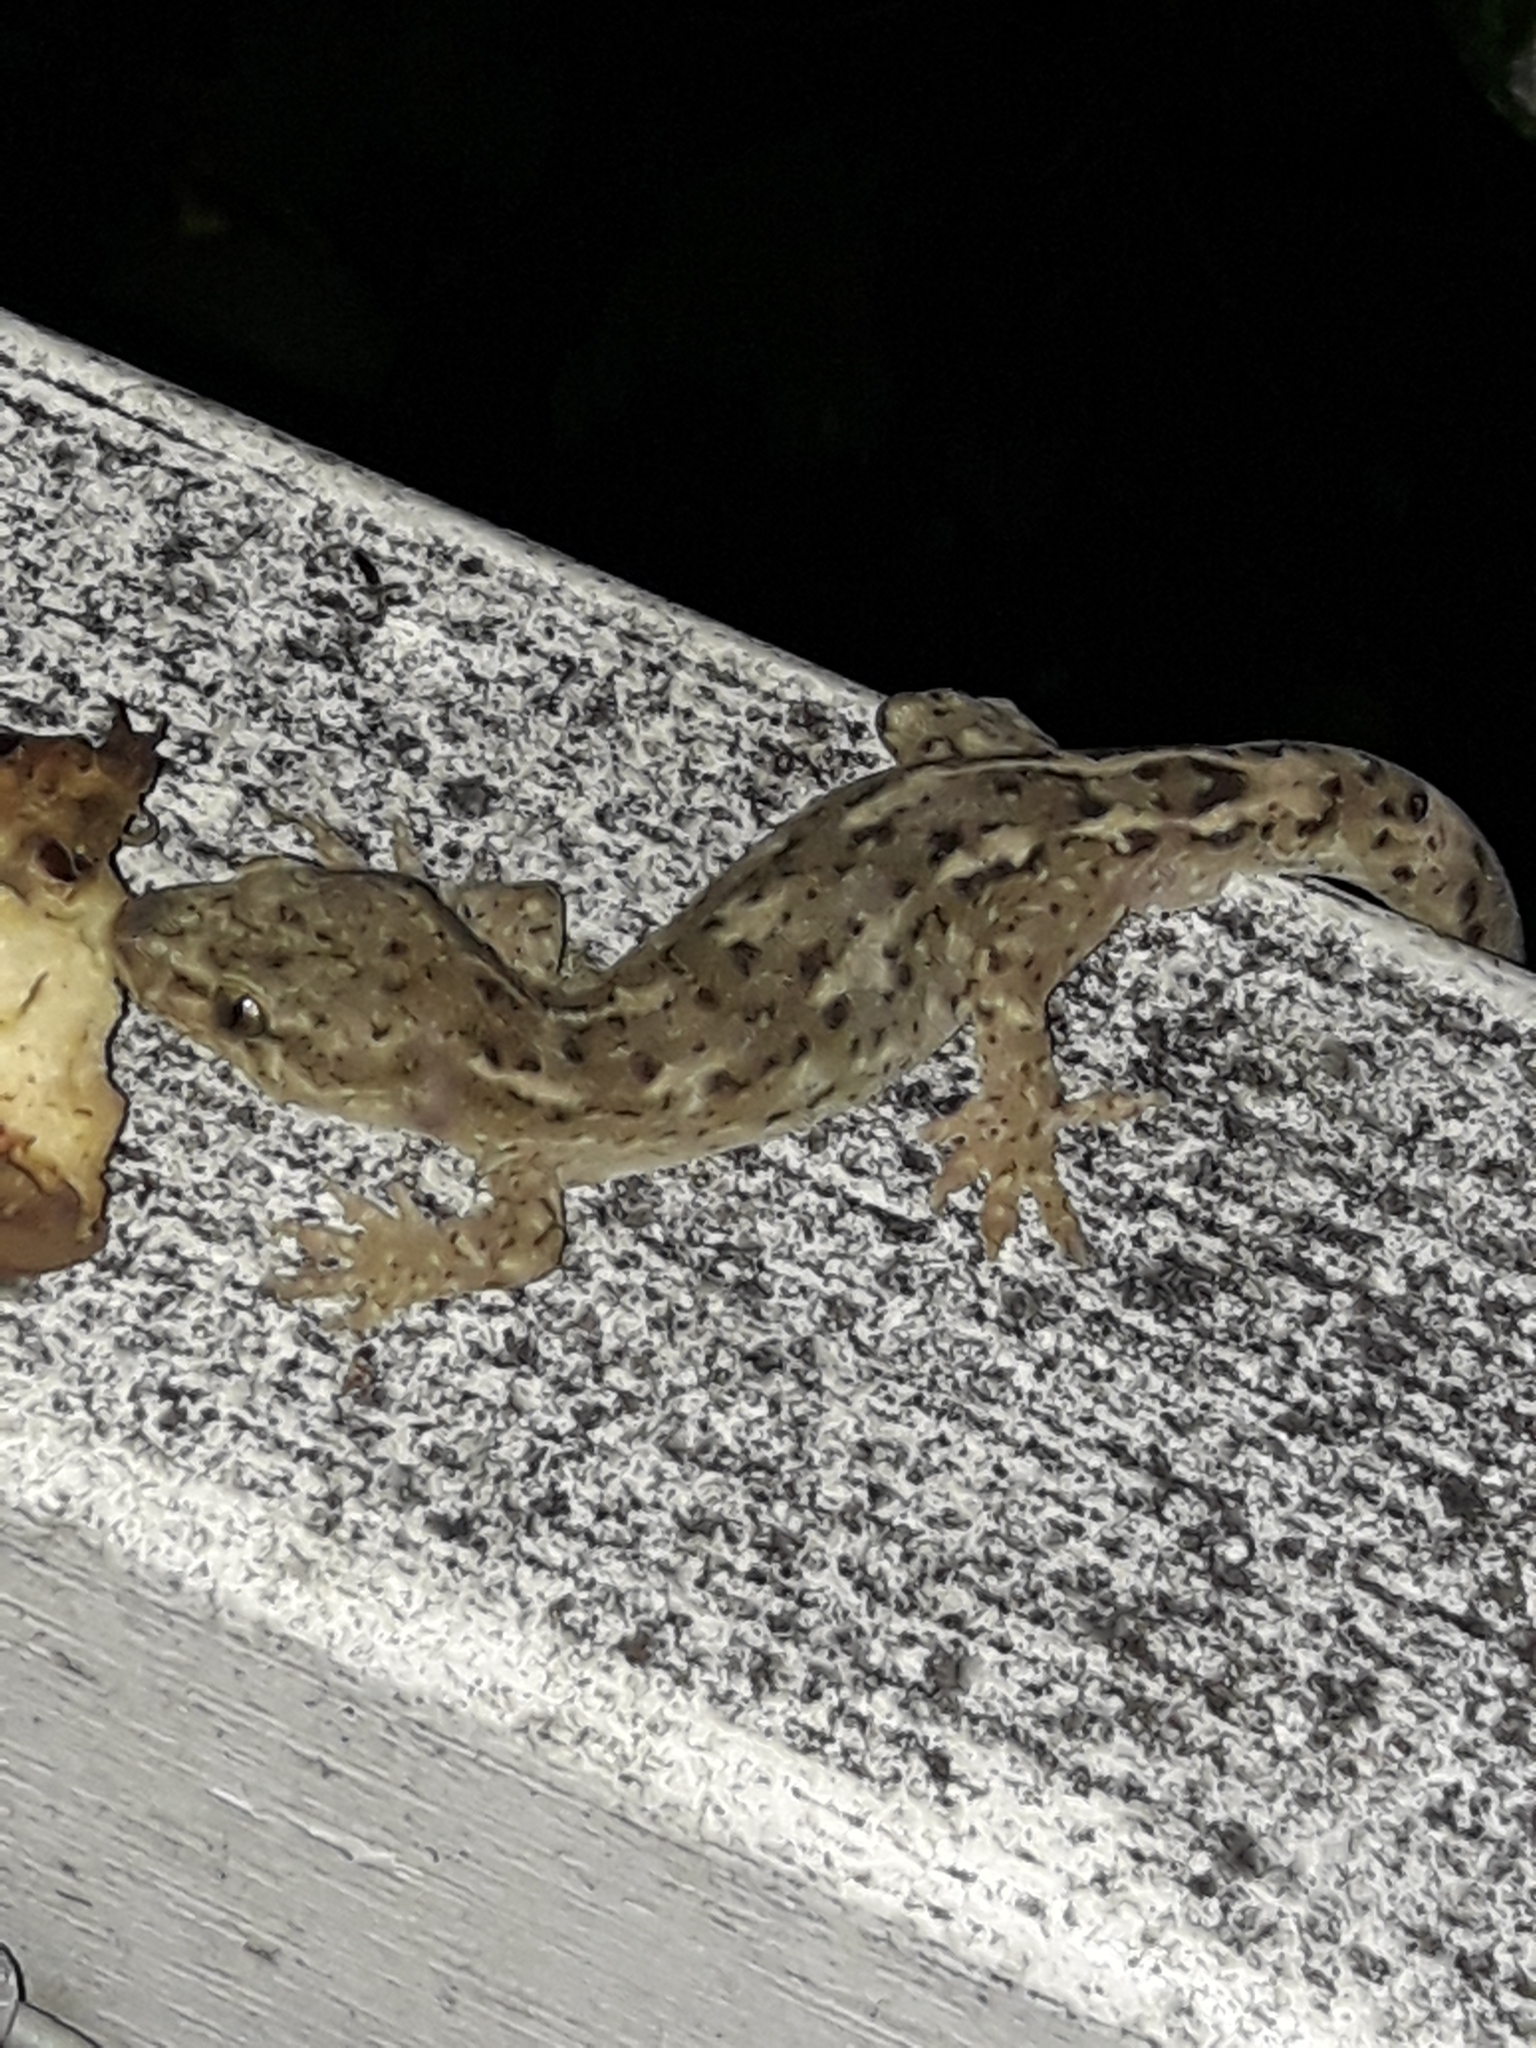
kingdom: Animalia
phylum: Chordata
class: Squamata
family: Diplodactylidae
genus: Woodworthia
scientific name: Woodworthia maculata
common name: Raukawa gecko
